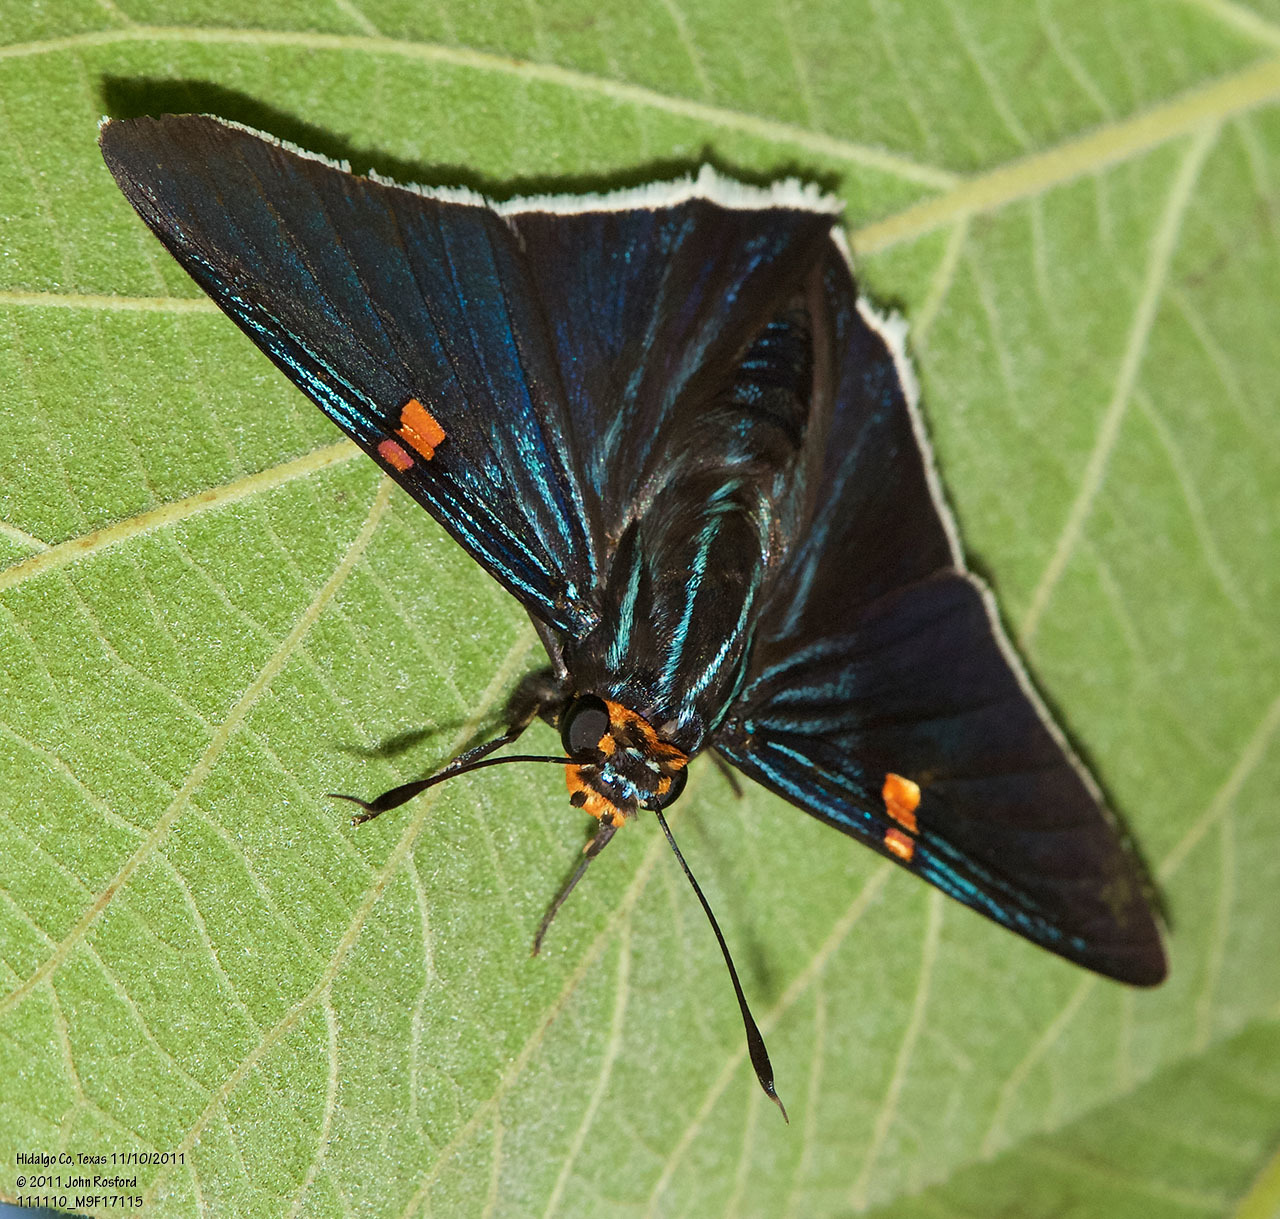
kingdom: Animalia
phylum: Arthropoda
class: Insecta
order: Lepidoptera
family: Hesperiidae
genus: Phocides
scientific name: Phocides lilea
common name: Guava skipper
